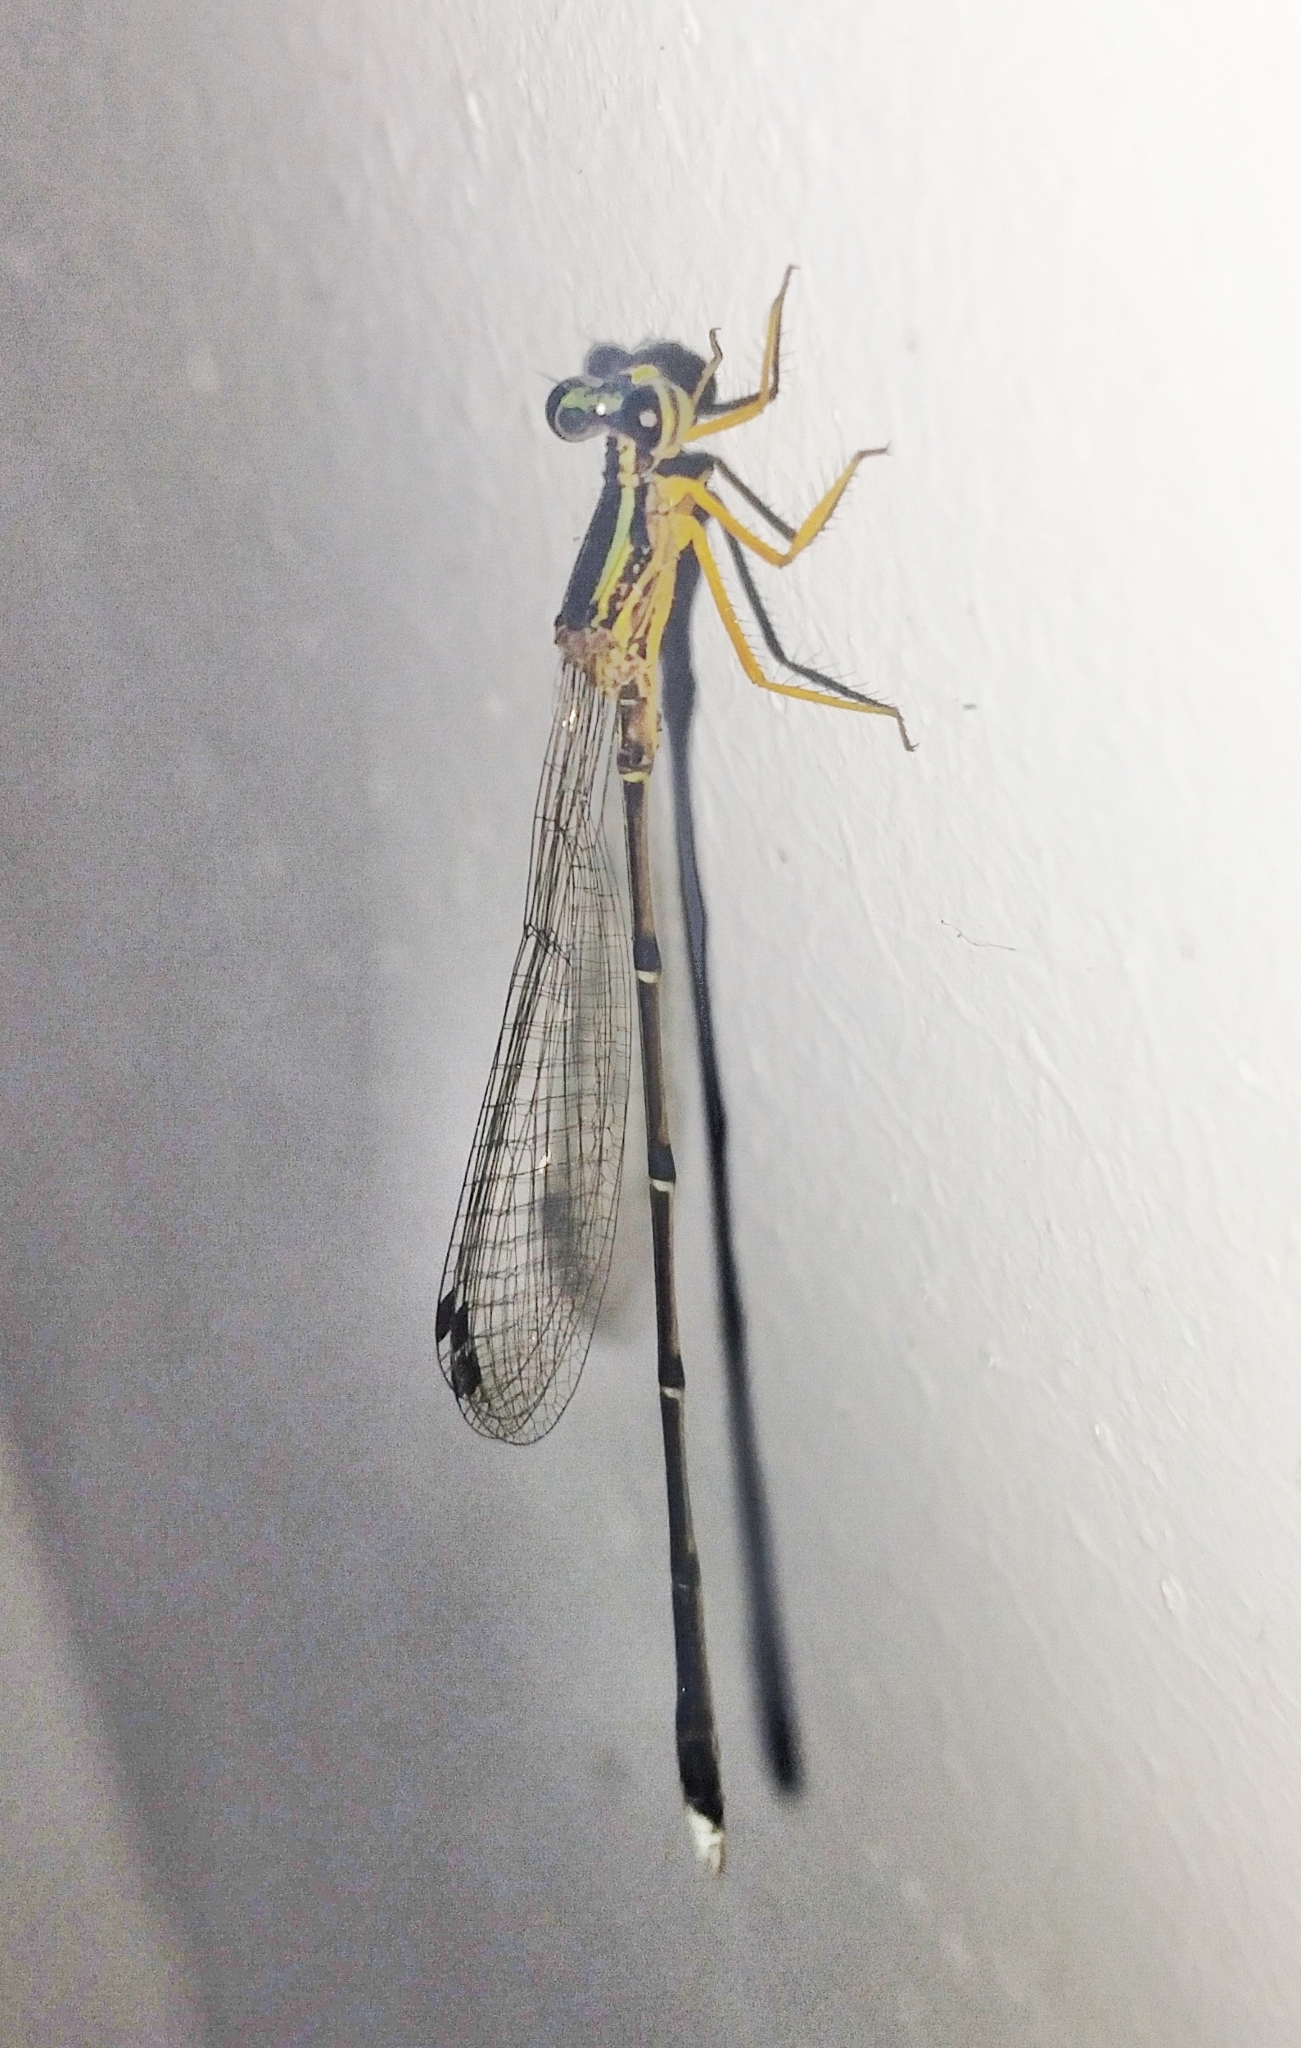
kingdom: Animalia
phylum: Arthropoda
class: Insecta
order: Odonata
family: Platycnemididae
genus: Copera
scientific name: Copera marginipes
